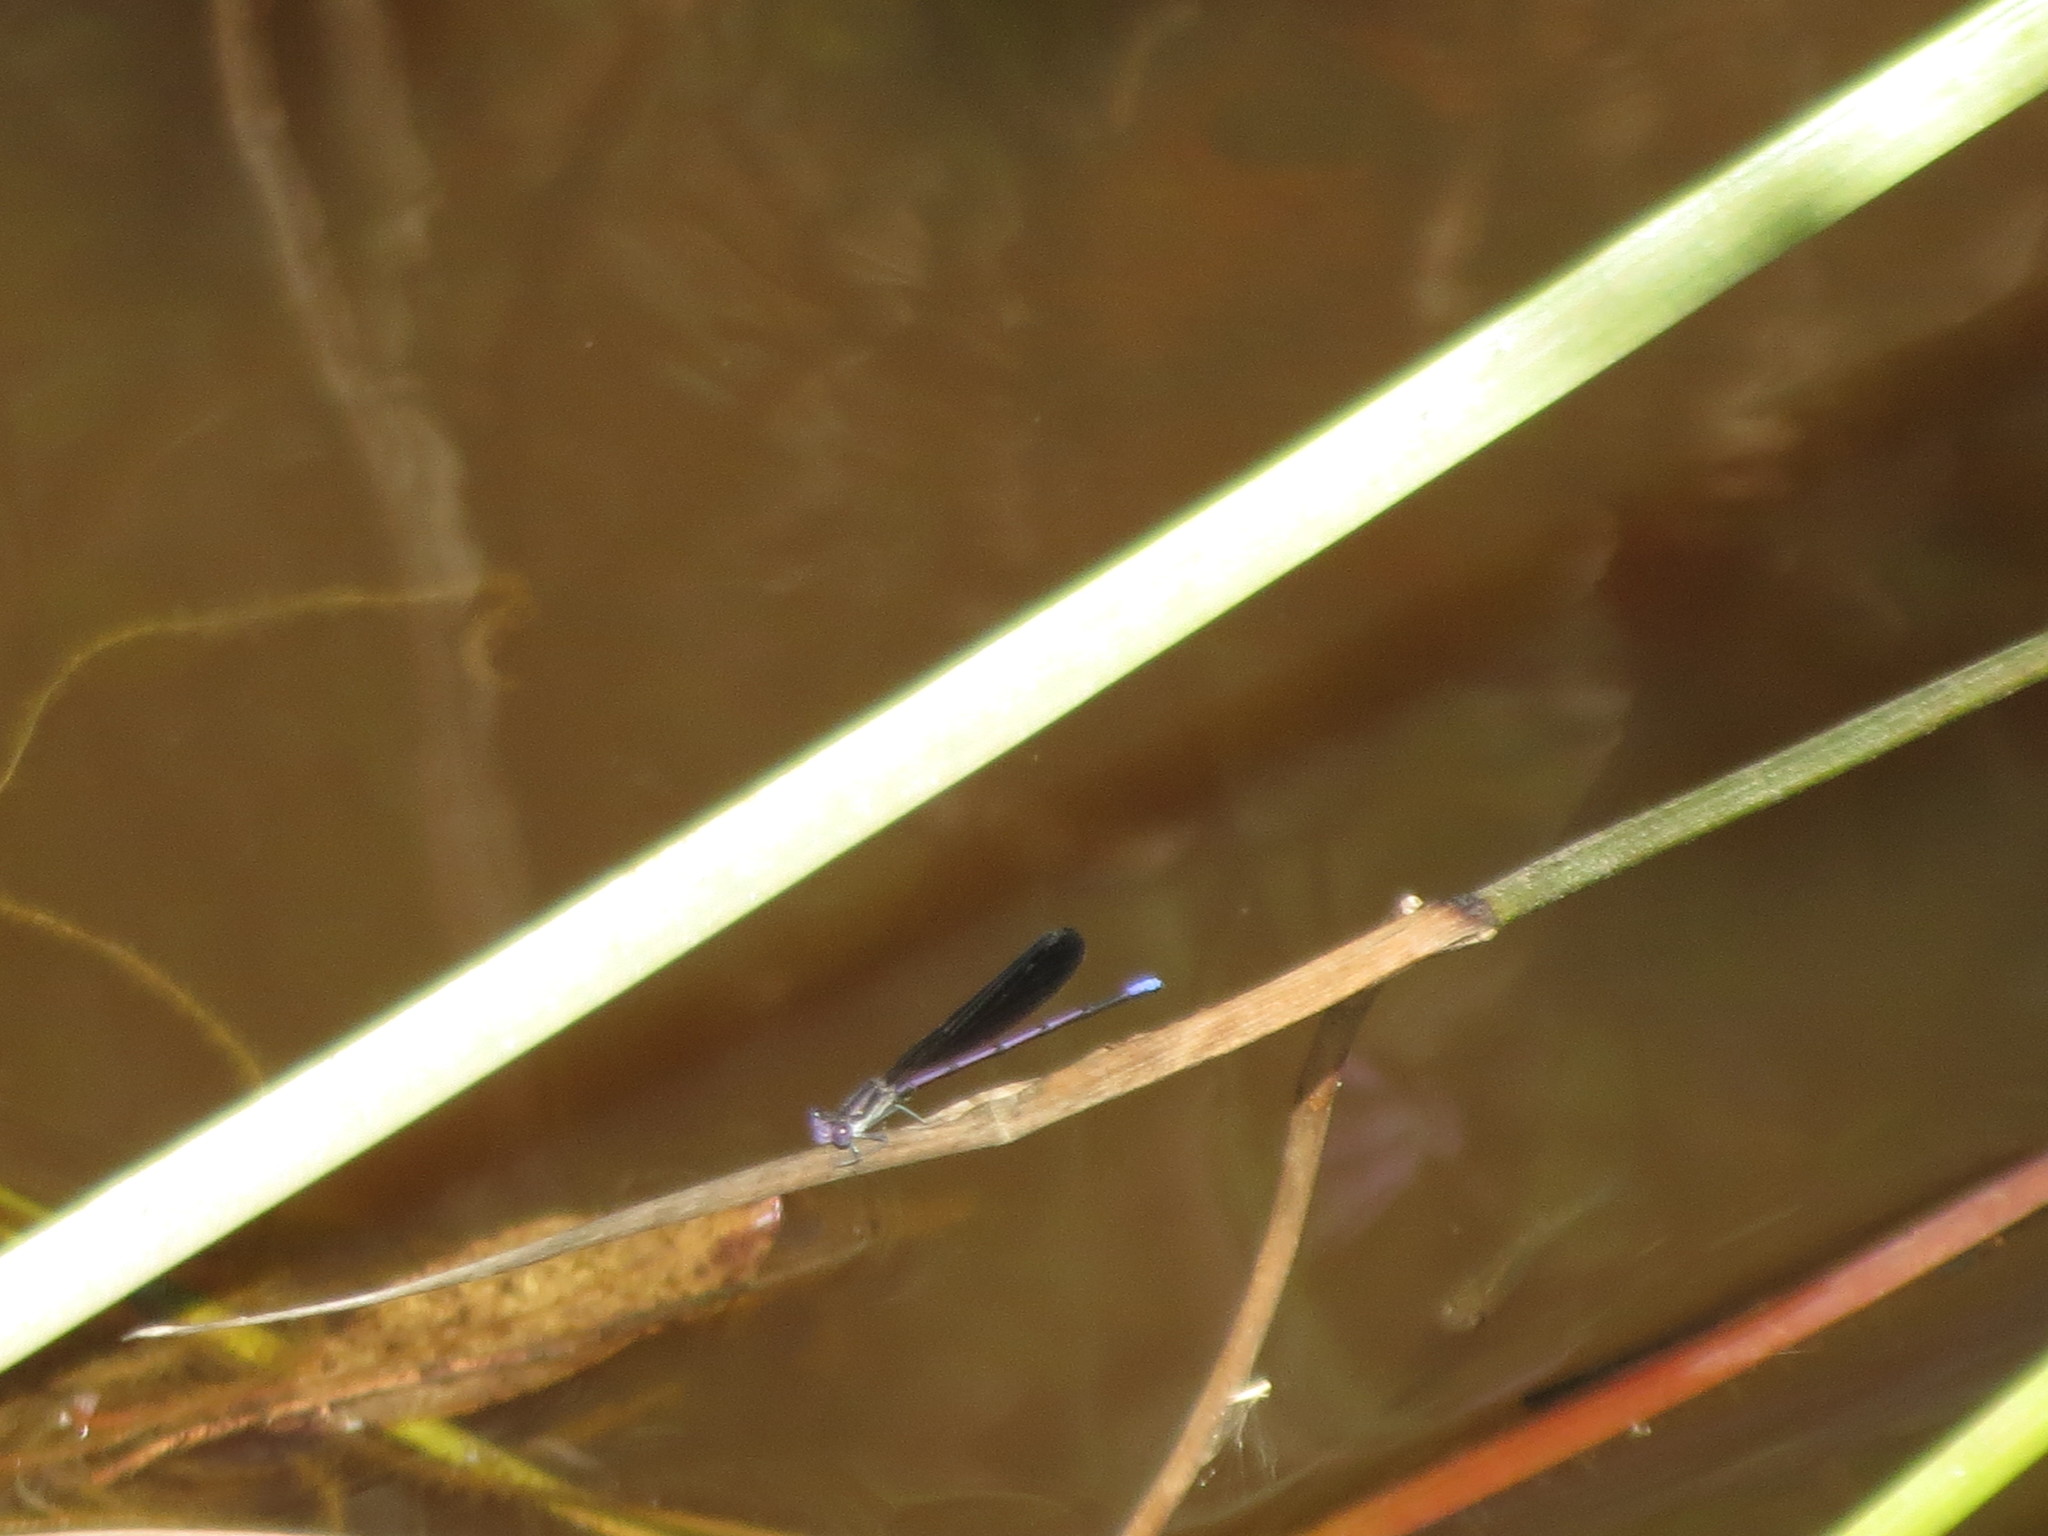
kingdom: Animalia
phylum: Arthropoda
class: Insecta
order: Odonata
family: Coenagrionidae
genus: Argia
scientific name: Argia fumipennis
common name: Variable dancer
